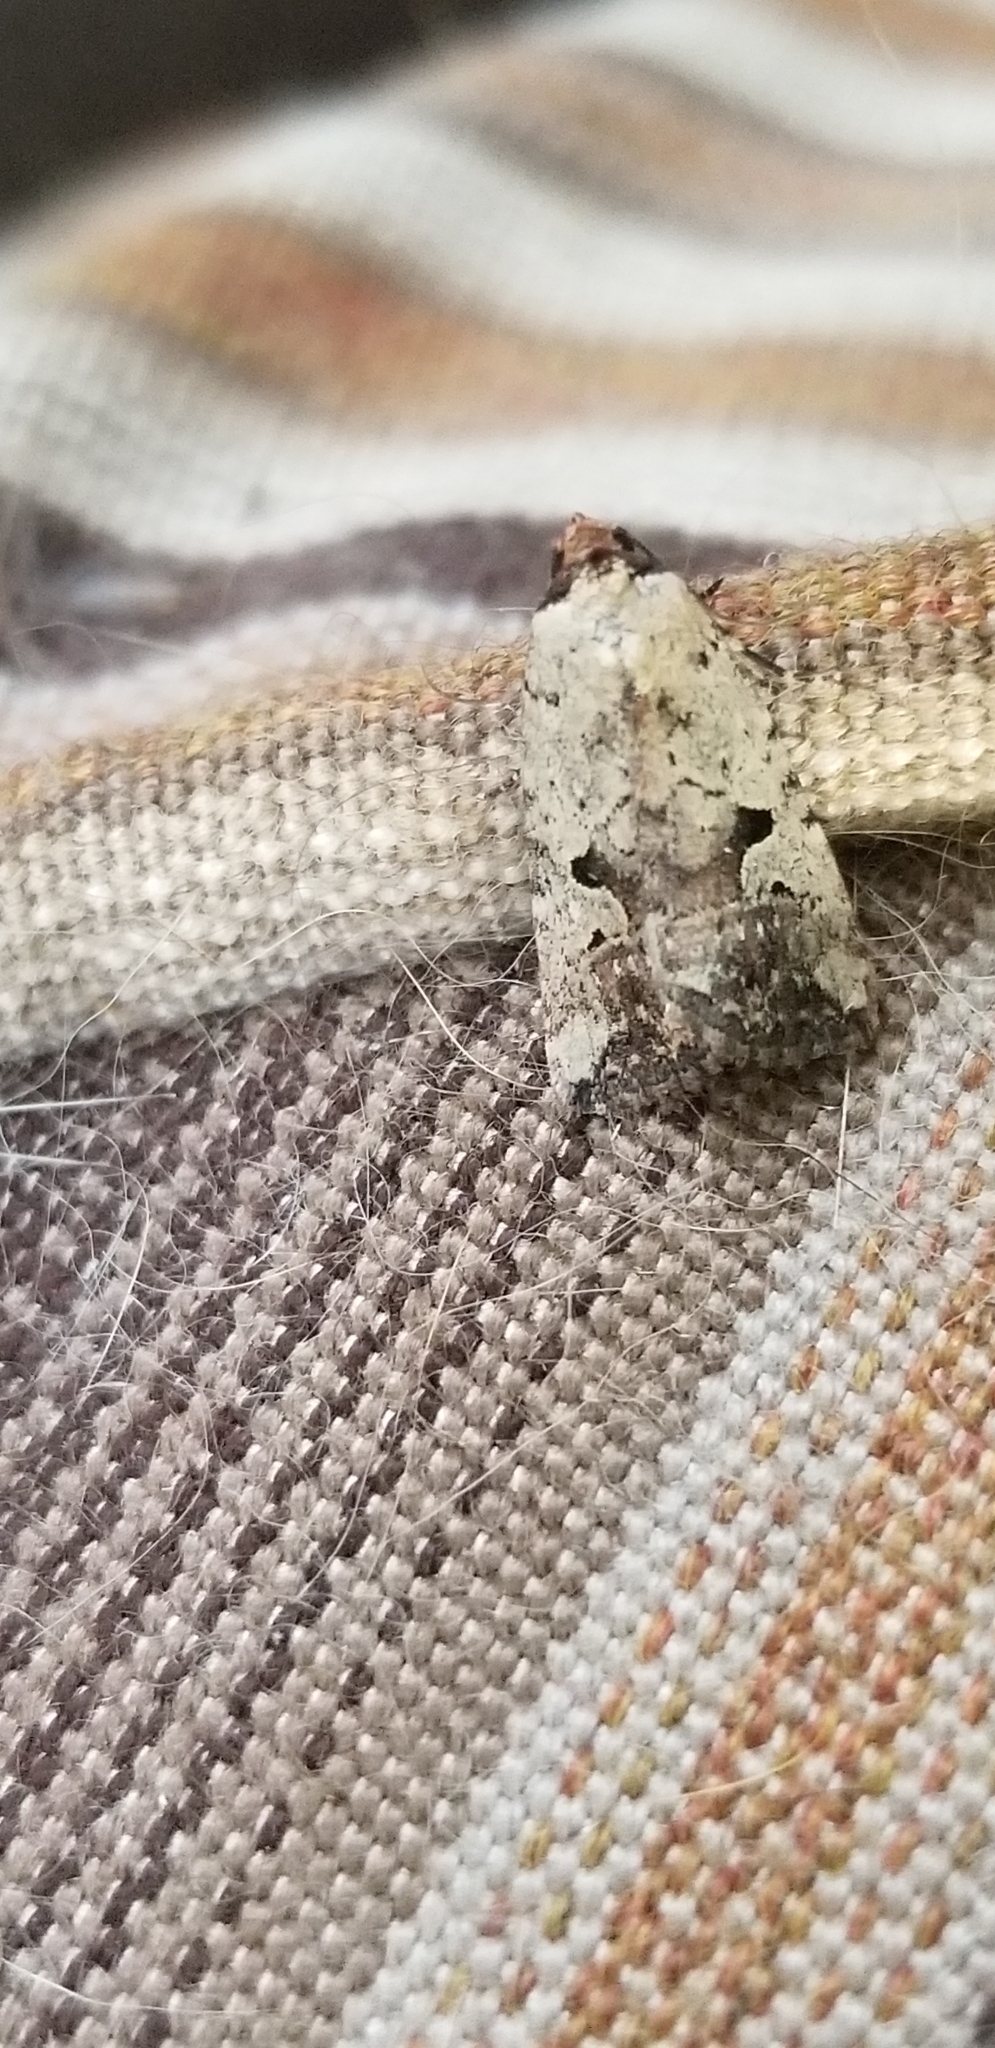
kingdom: Animalia
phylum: Arthropoda
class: Insecta
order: Lepidoptera
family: Noctuidae
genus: Elaphria
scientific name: Elaphria festivoides
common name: Festive midget
